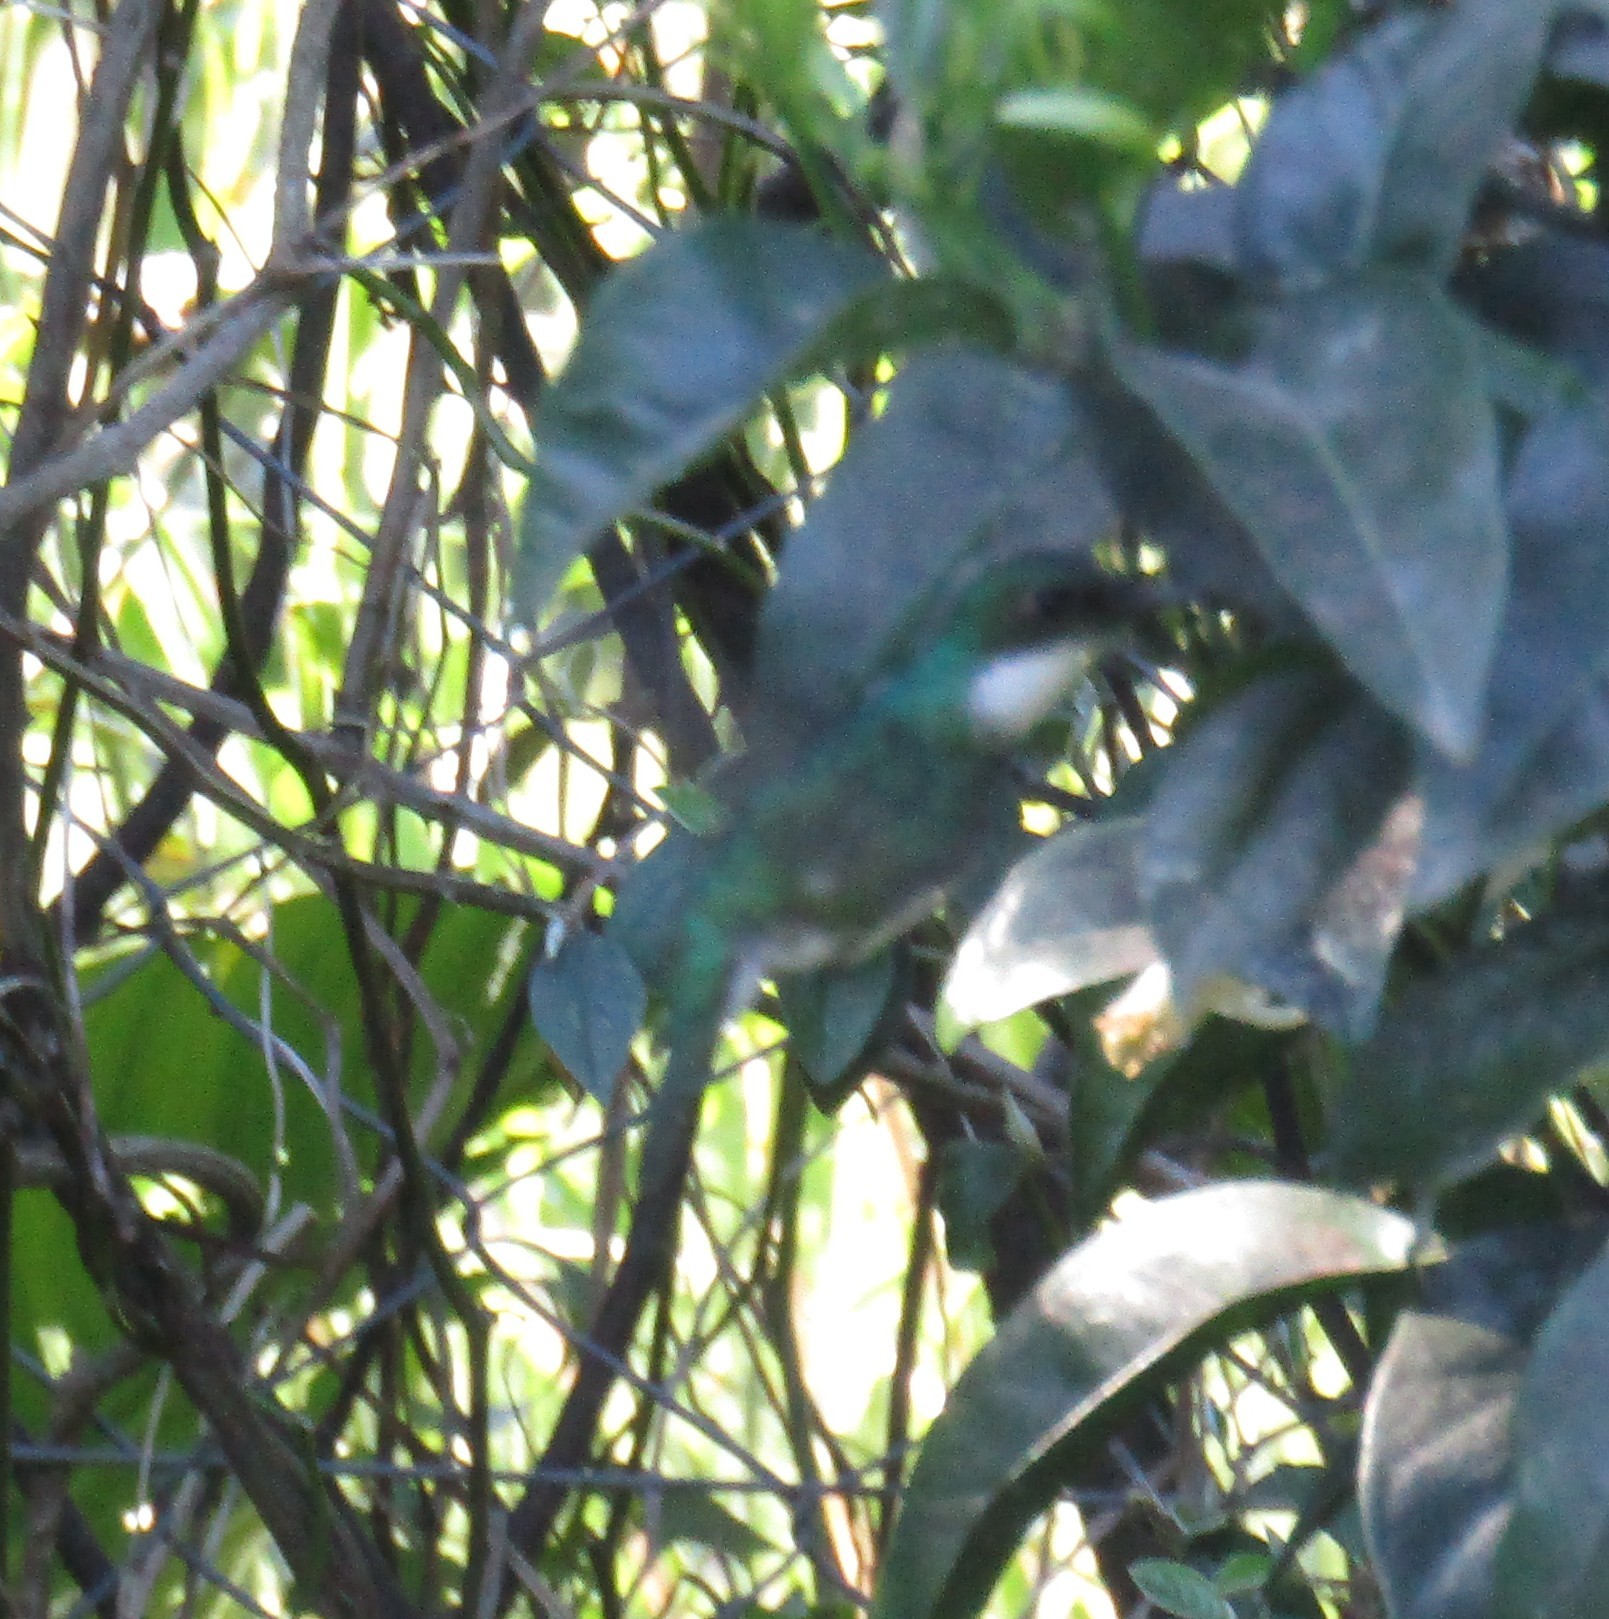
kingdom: Animalia
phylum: Chordata
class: Aves
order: Apodiformes
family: Trochilidae
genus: Leucochloris
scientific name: Leucochloris albicollis
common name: White-throated hummingbird
